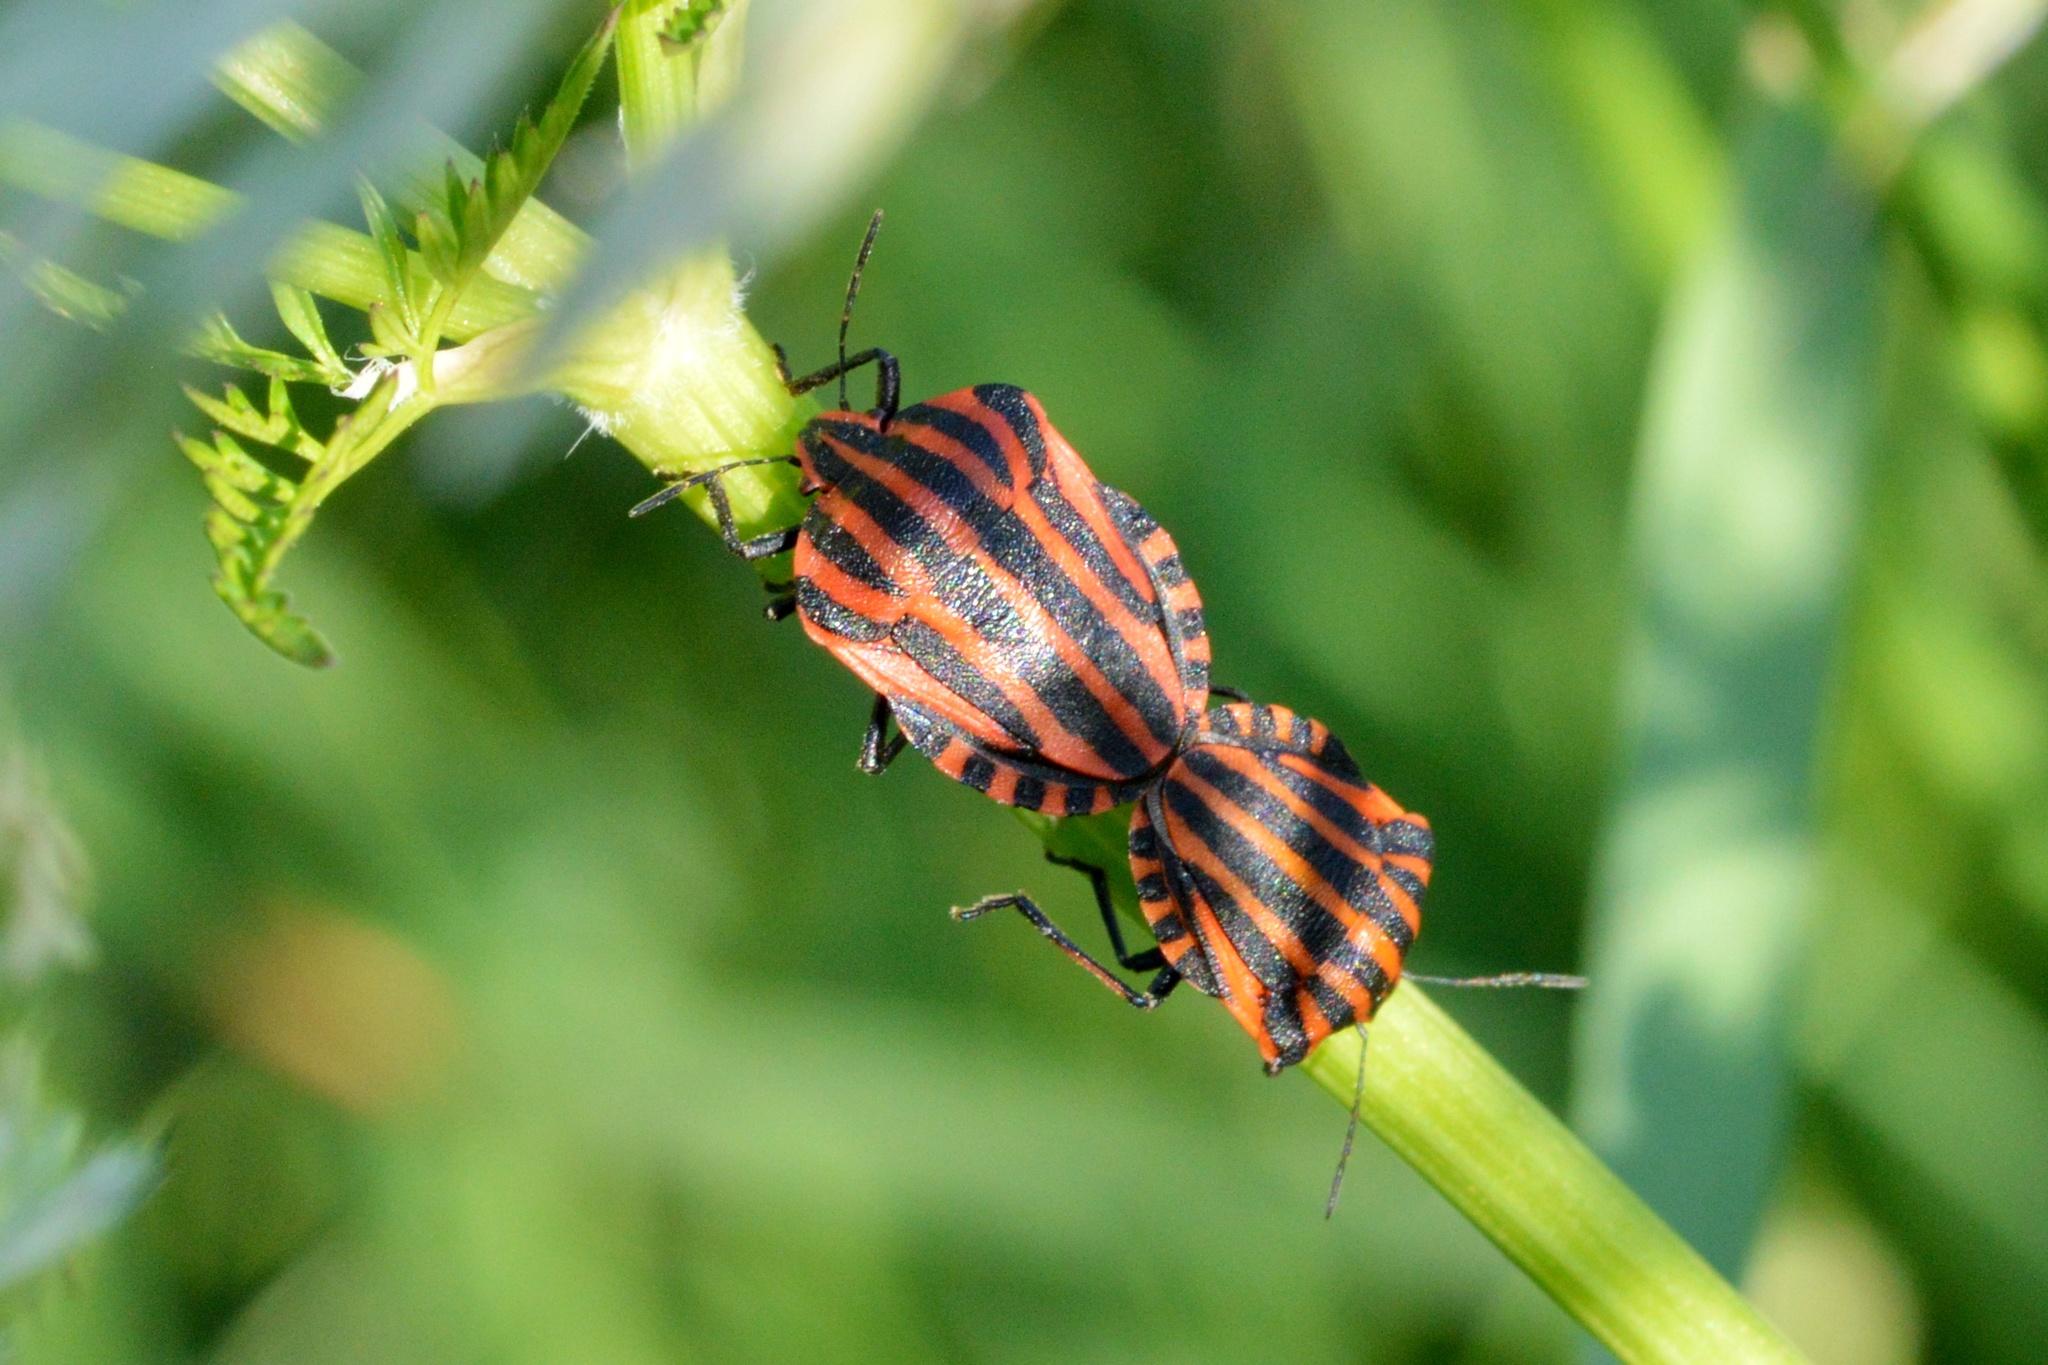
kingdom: Animalia
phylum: Arthropoda
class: Insecta
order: Hemiptera
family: Pentatomidae
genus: Graphosoma
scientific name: Graphosoma italicum
